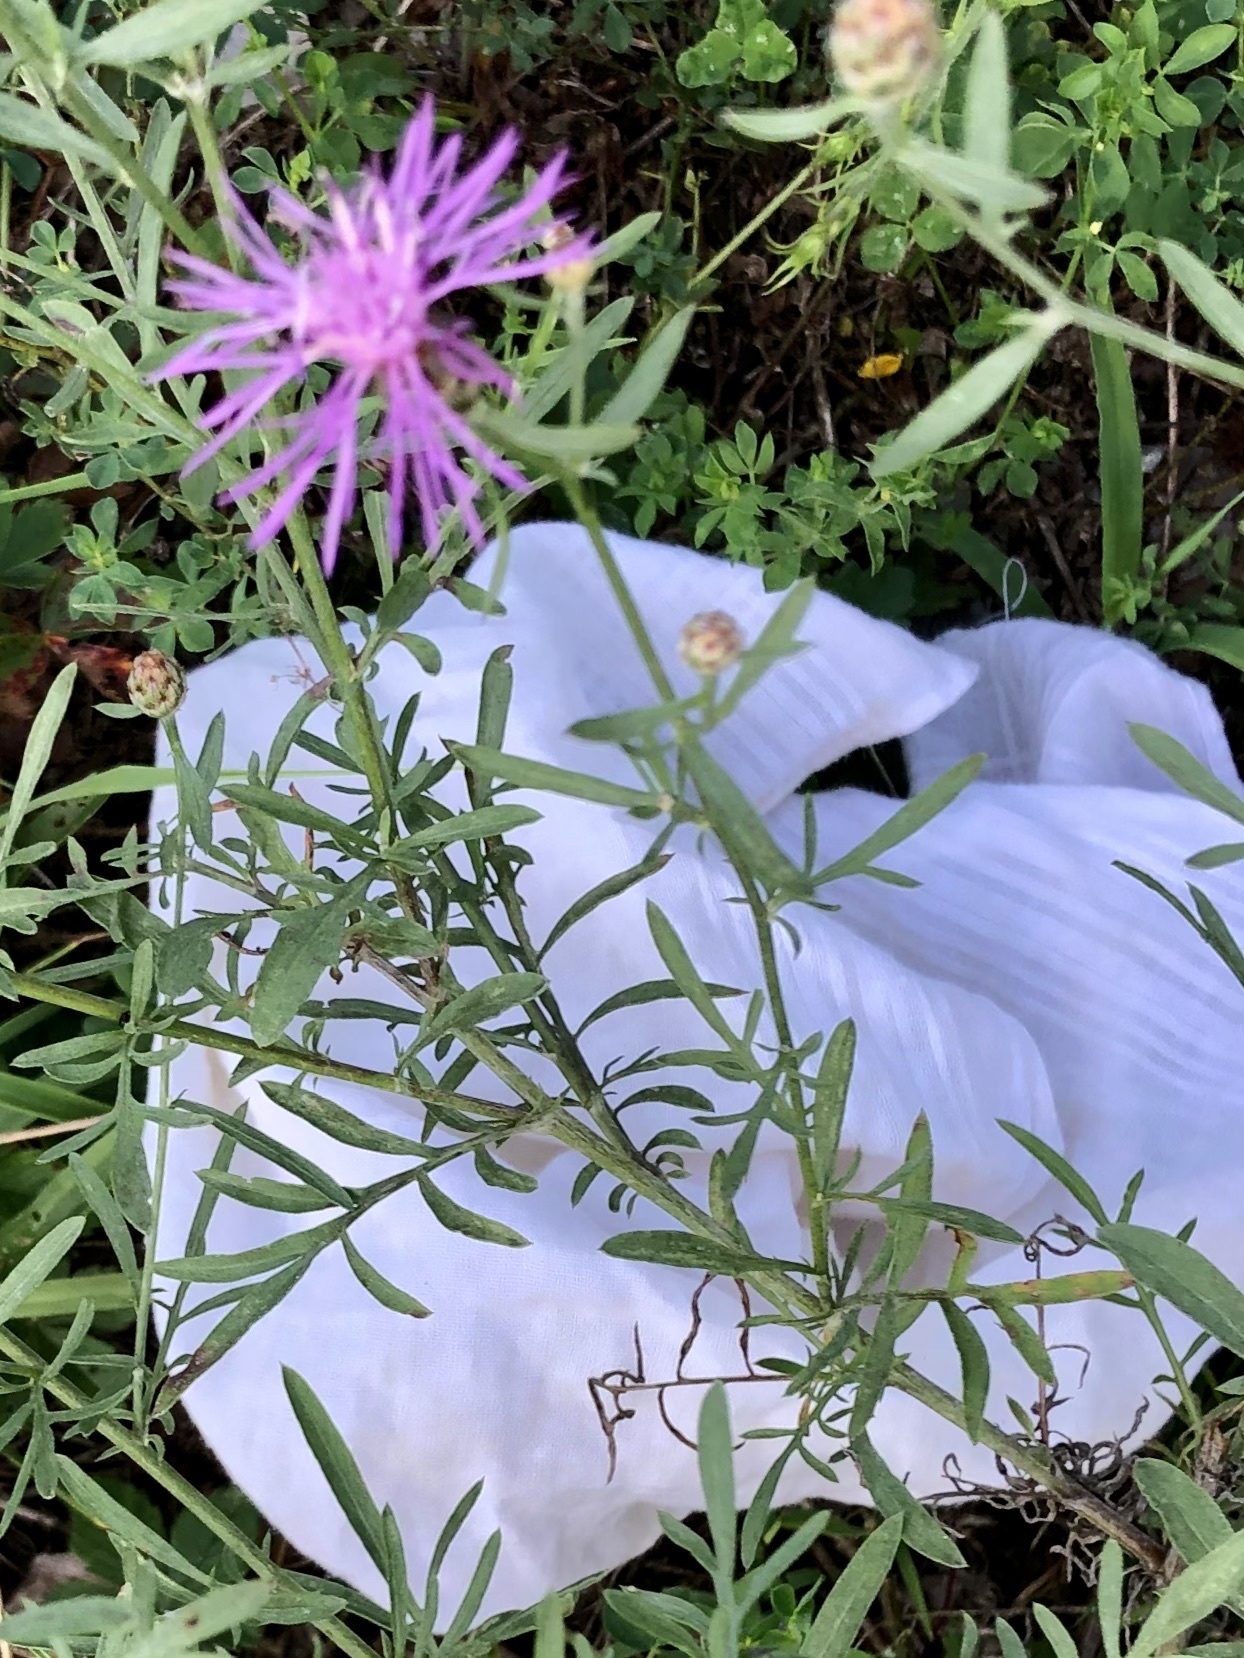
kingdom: Plantae
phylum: Tracheophyta
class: Magnoliopsida
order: Asterales
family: Asteraceae
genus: Centaurea
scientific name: Centaurea stoebe
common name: Spotted knapweed
